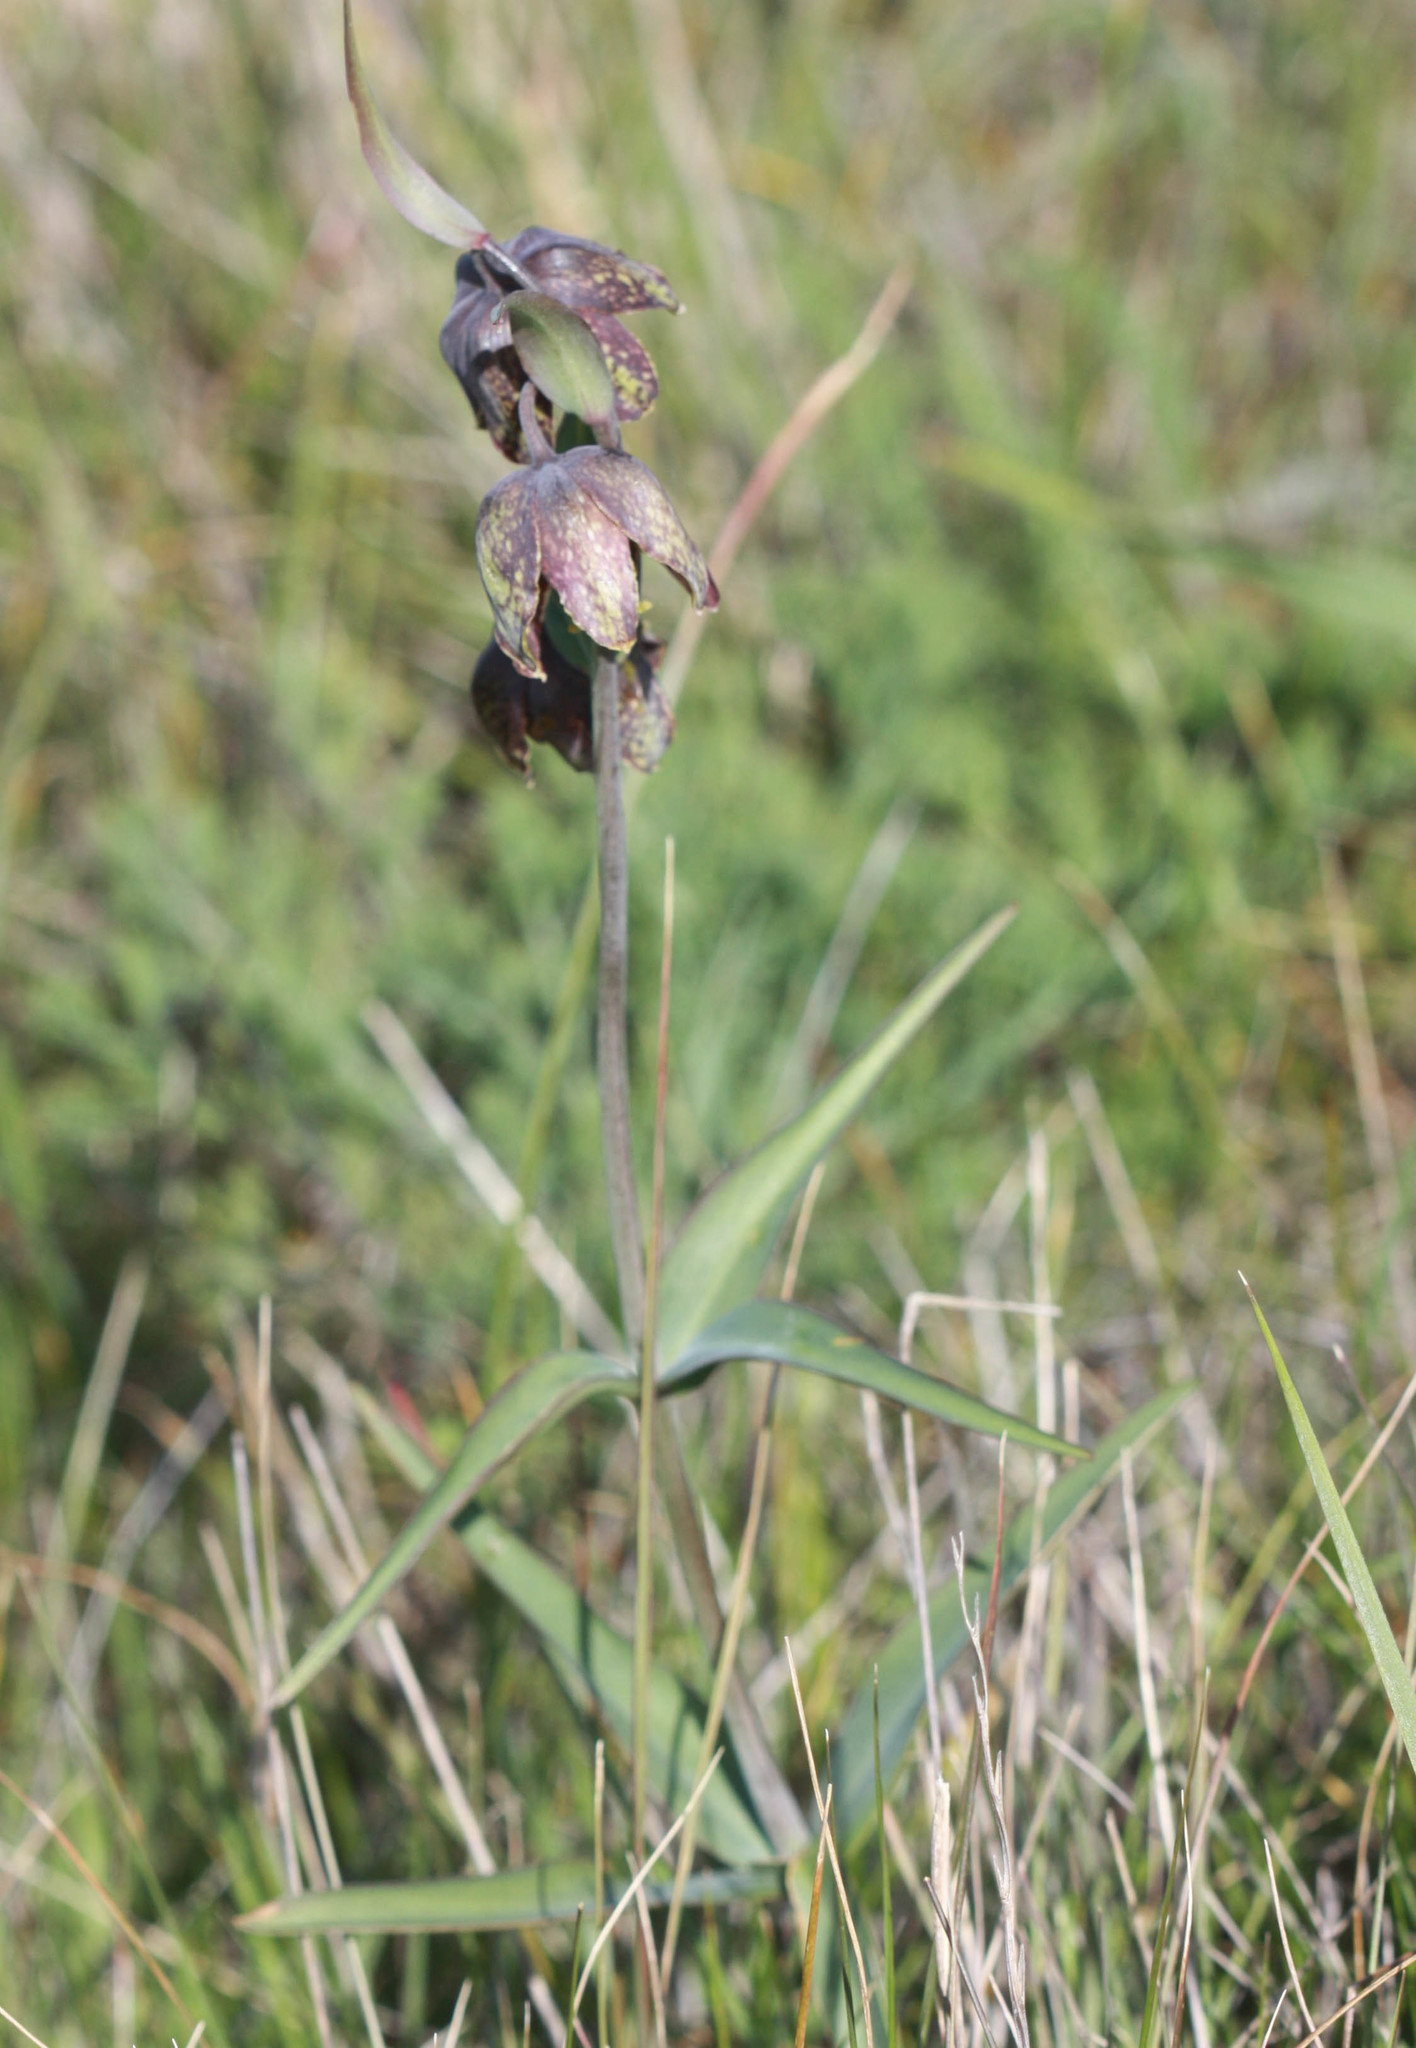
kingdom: Plantae
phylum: Tracheophyta
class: Liliopsida
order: Liliales
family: Liliaceae
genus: Fritillaria
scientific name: Fritillaria affinis
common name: Ojai fritillary
